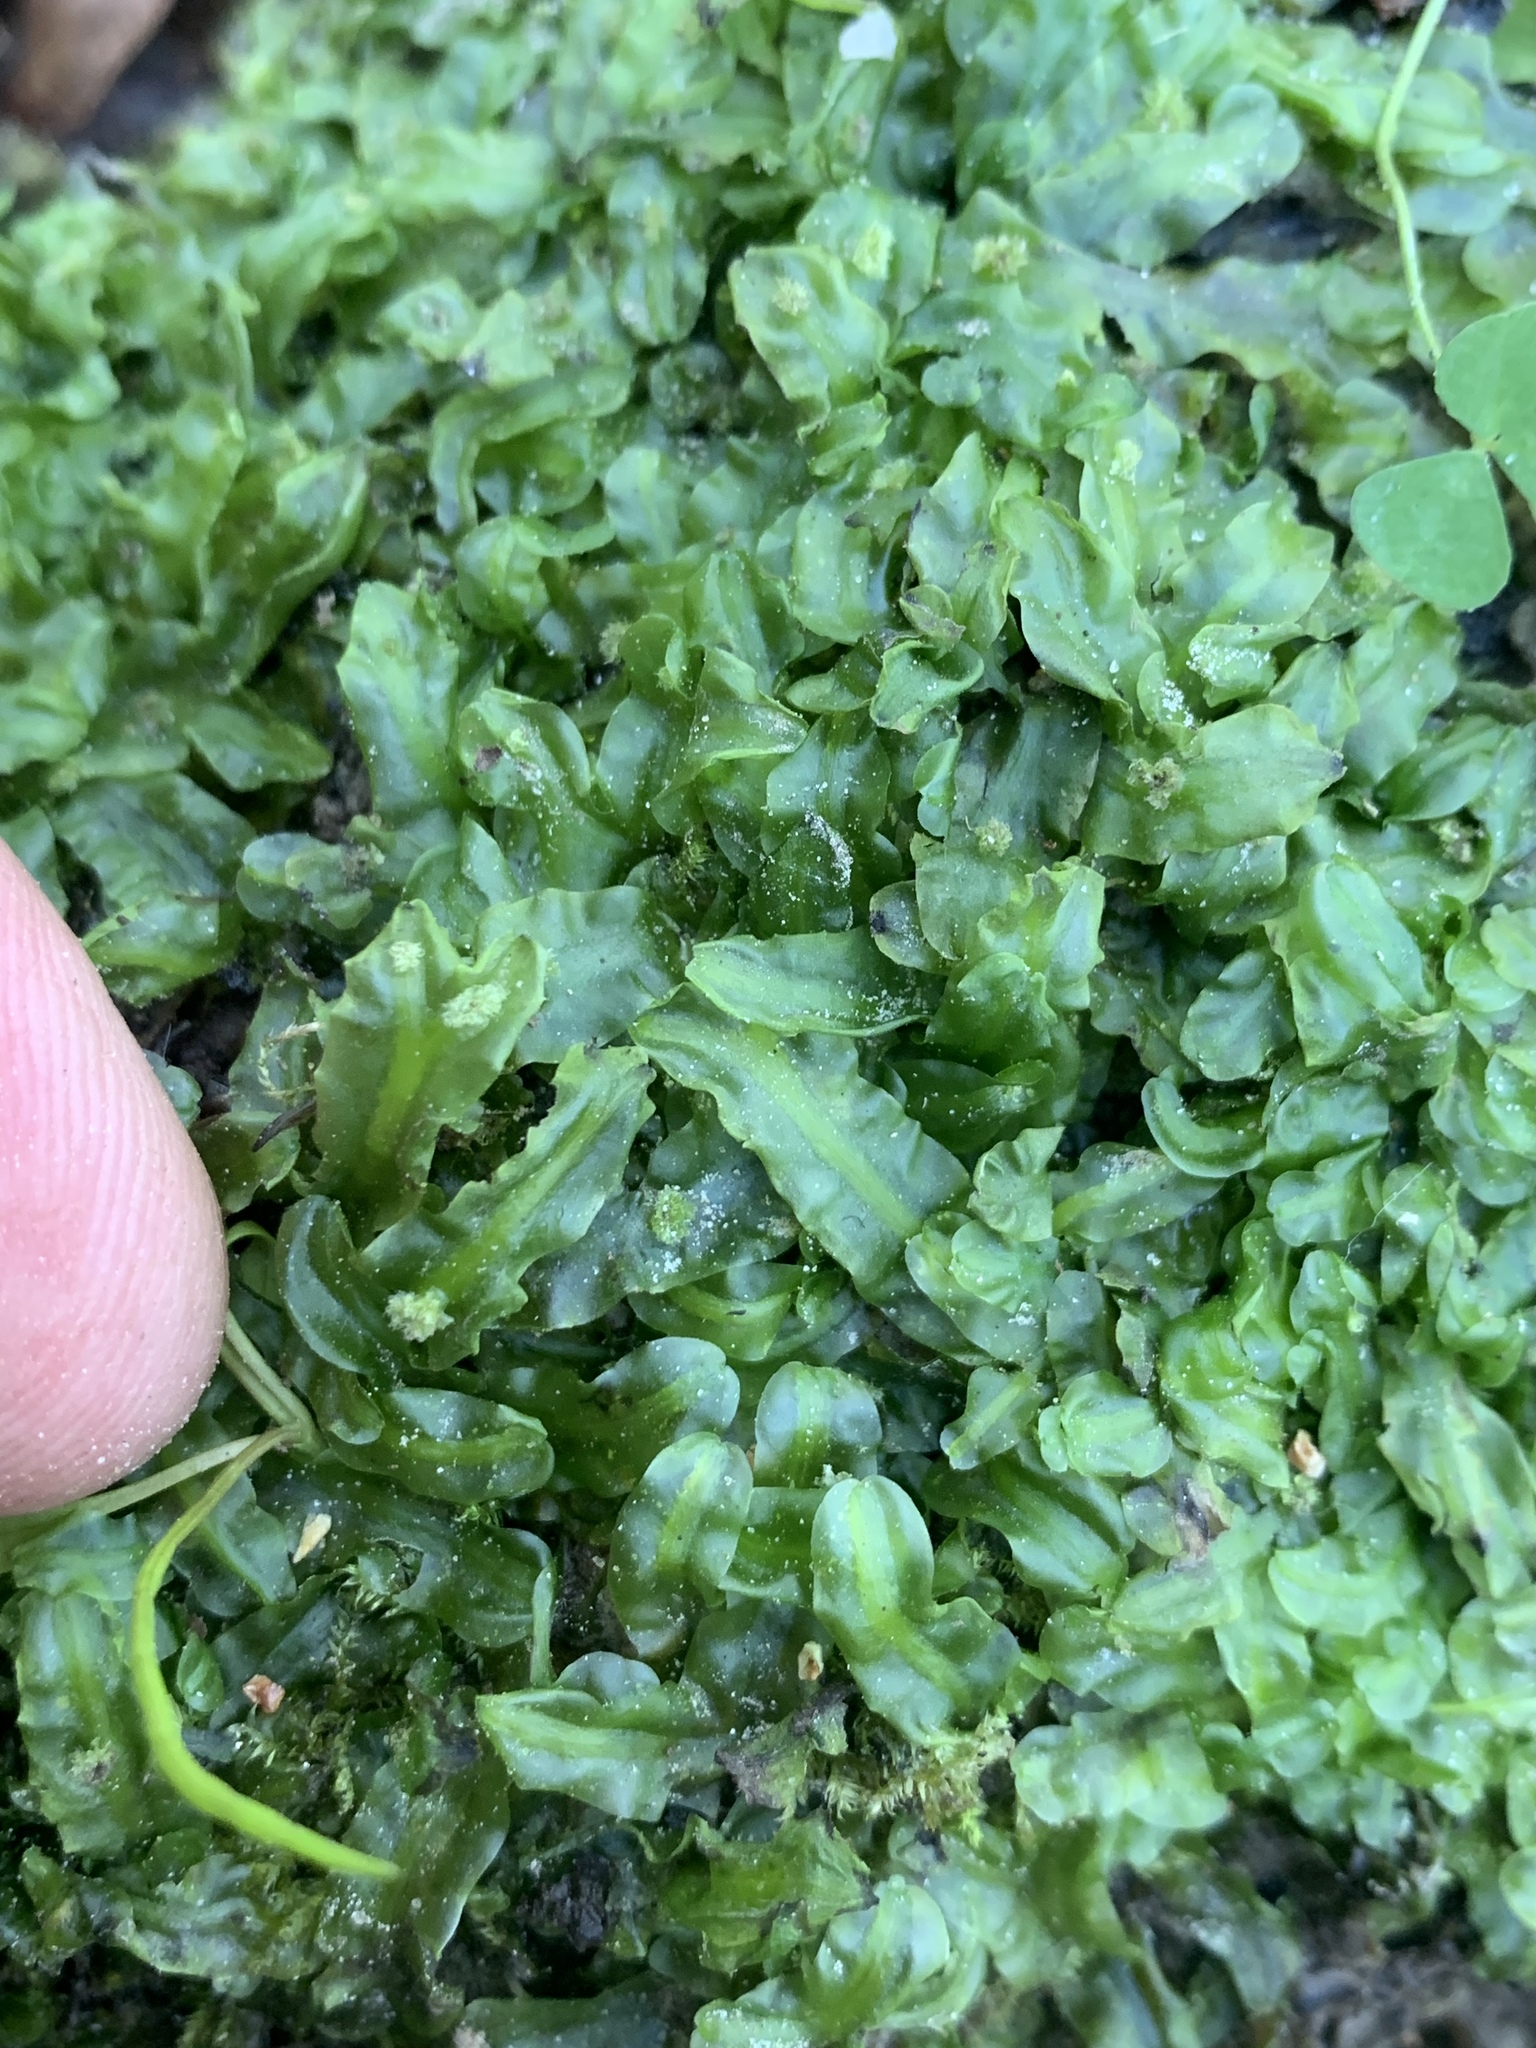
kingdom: Plantae
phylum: Marchantiophyta
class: Jungermanniopsida
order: Pallaviciniales
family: Pallaviciniaceae
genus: Pallavicinia
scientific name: Pallavicinia lyellii
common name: Veilwort
